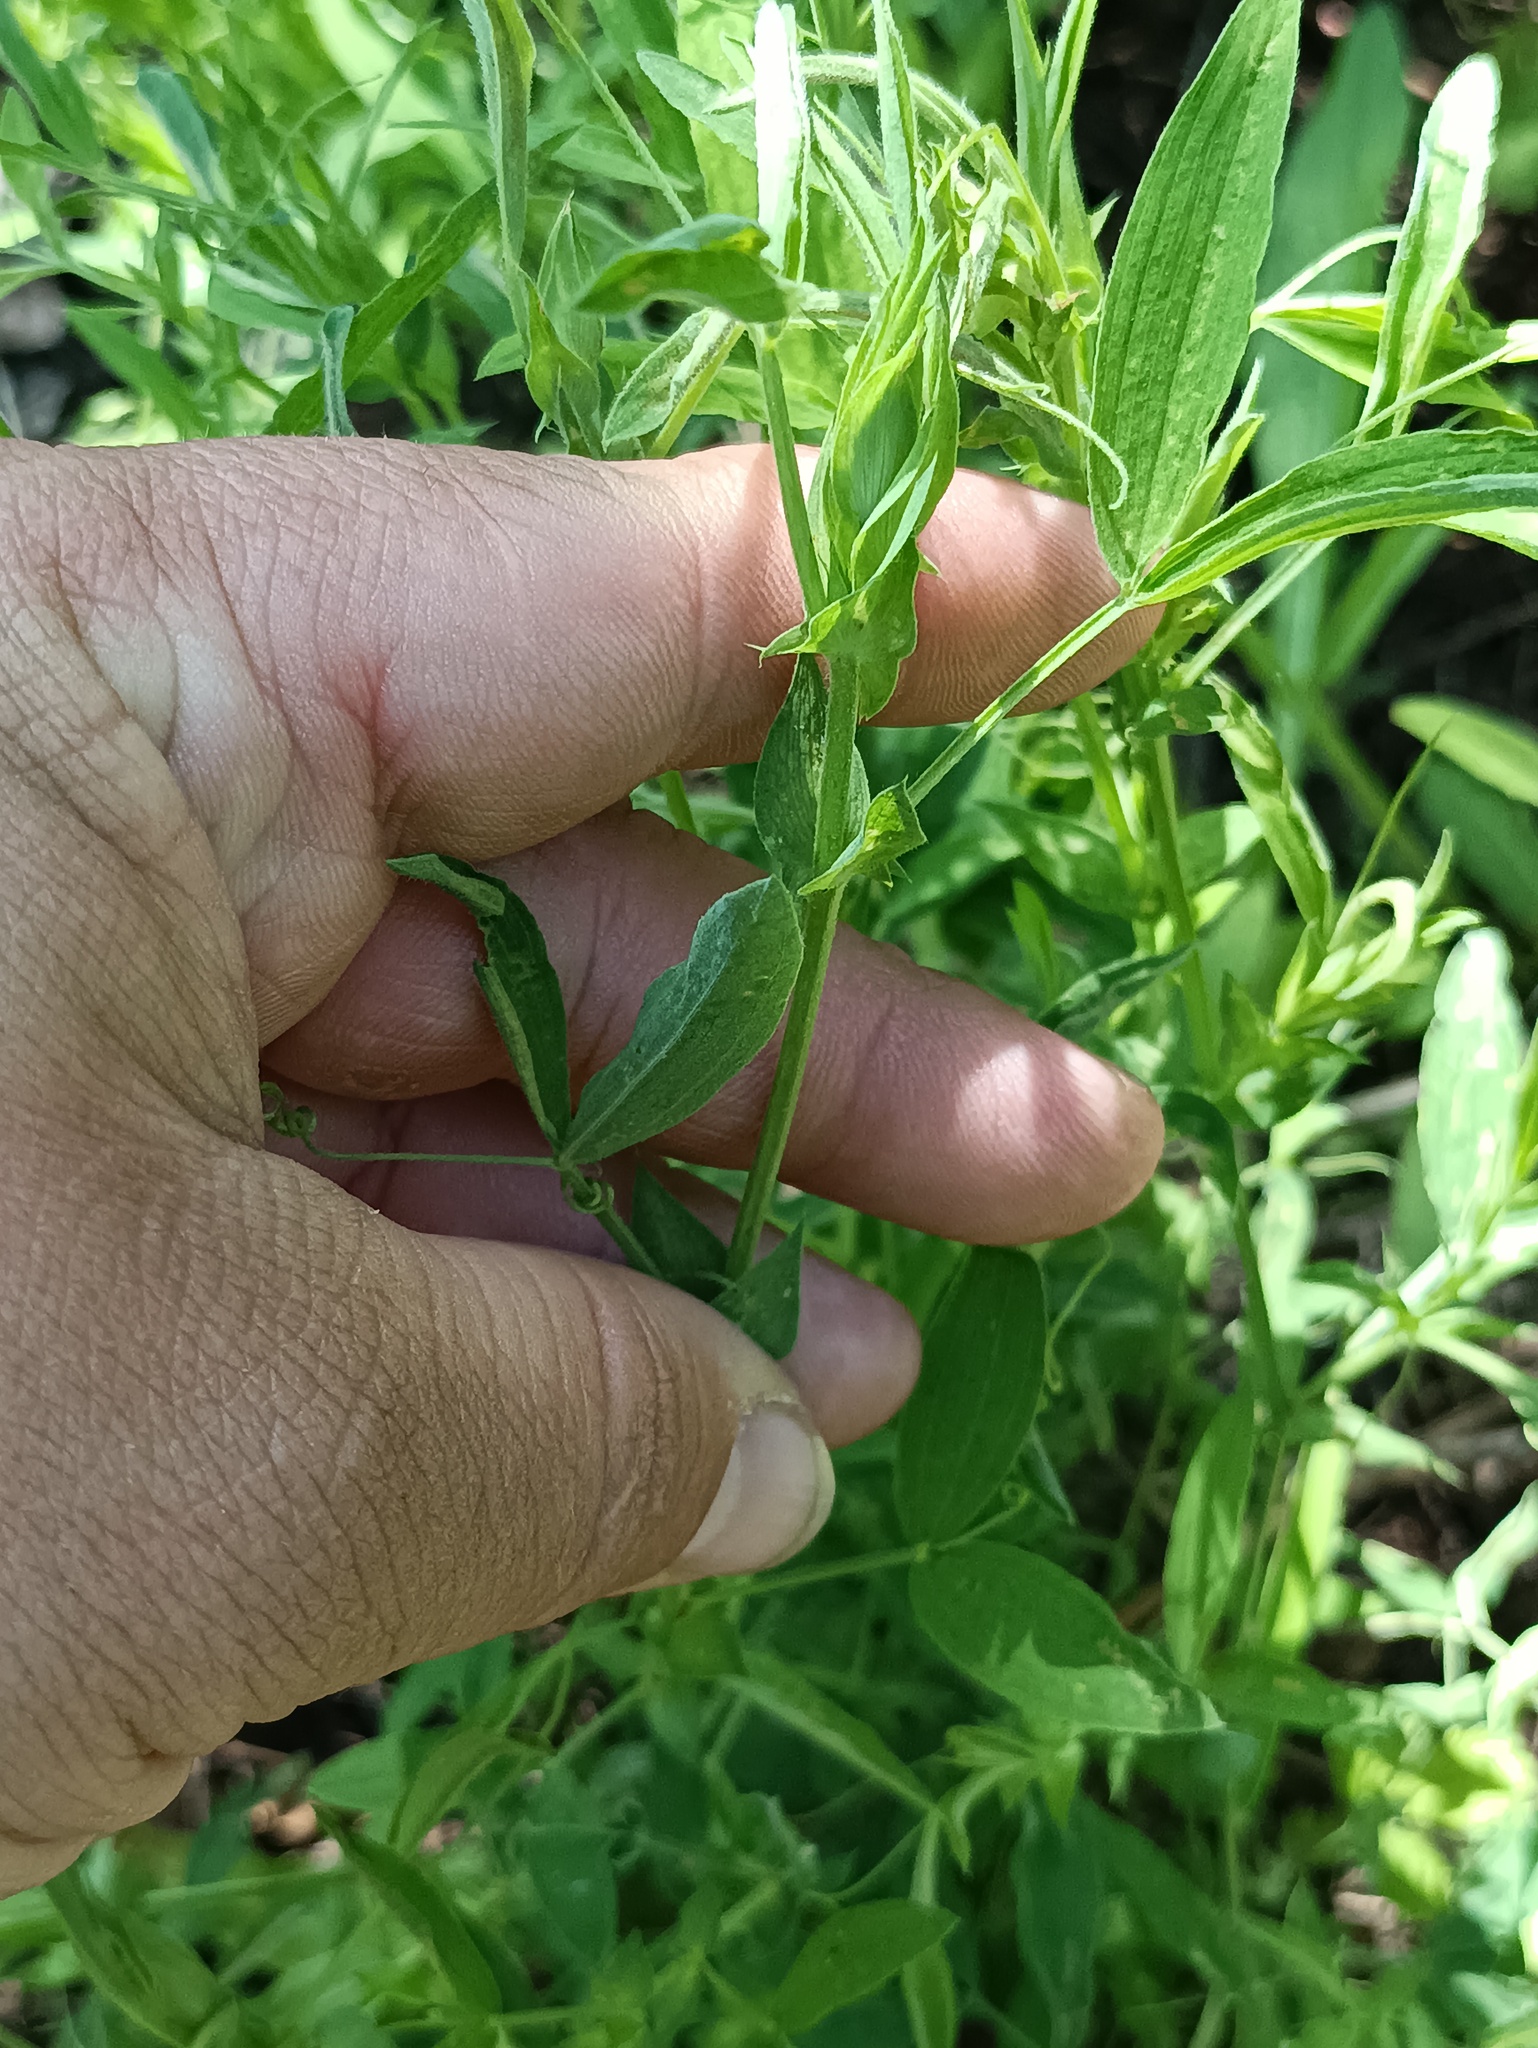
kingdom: Plantae
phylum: Tracheophyta
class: Magnoliopsida
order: Fabales
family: Fabaceae
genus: Lathyrus
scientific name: Lathyrus pratensis
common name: Meadow vetchling
